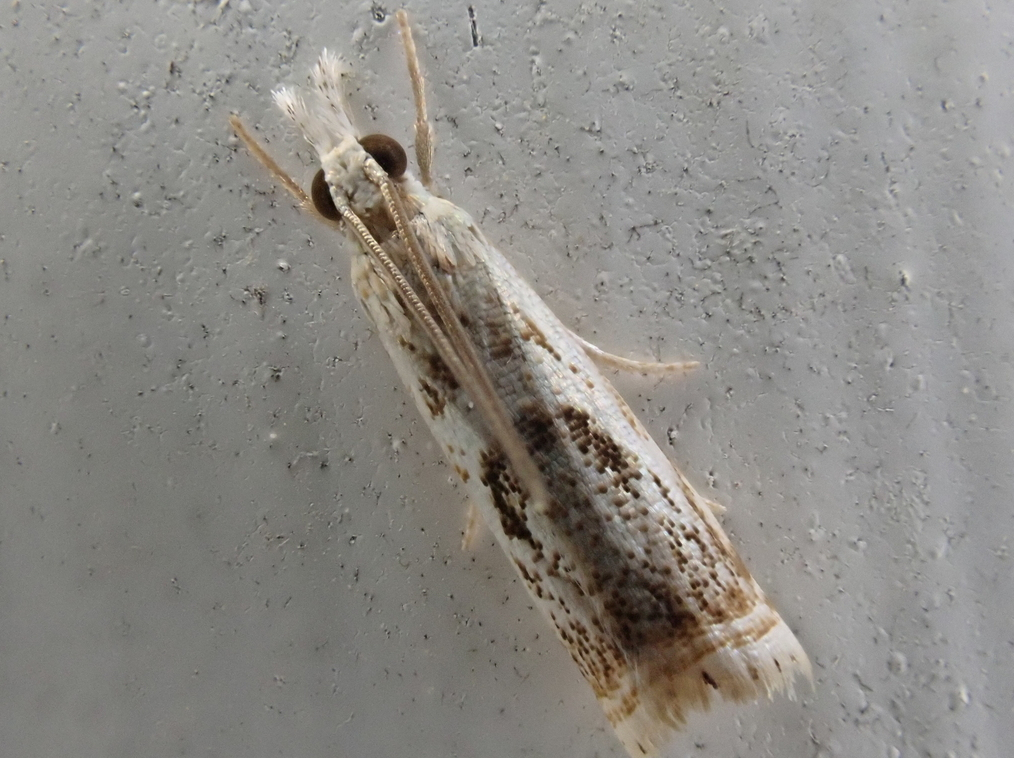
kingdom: Animalia
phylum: Arthropoda
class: Insecta
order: Lepidoptera
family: Crambidae
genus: Microcrambus
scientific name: Microcrambus elegans
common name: Elegant grass-veneer
